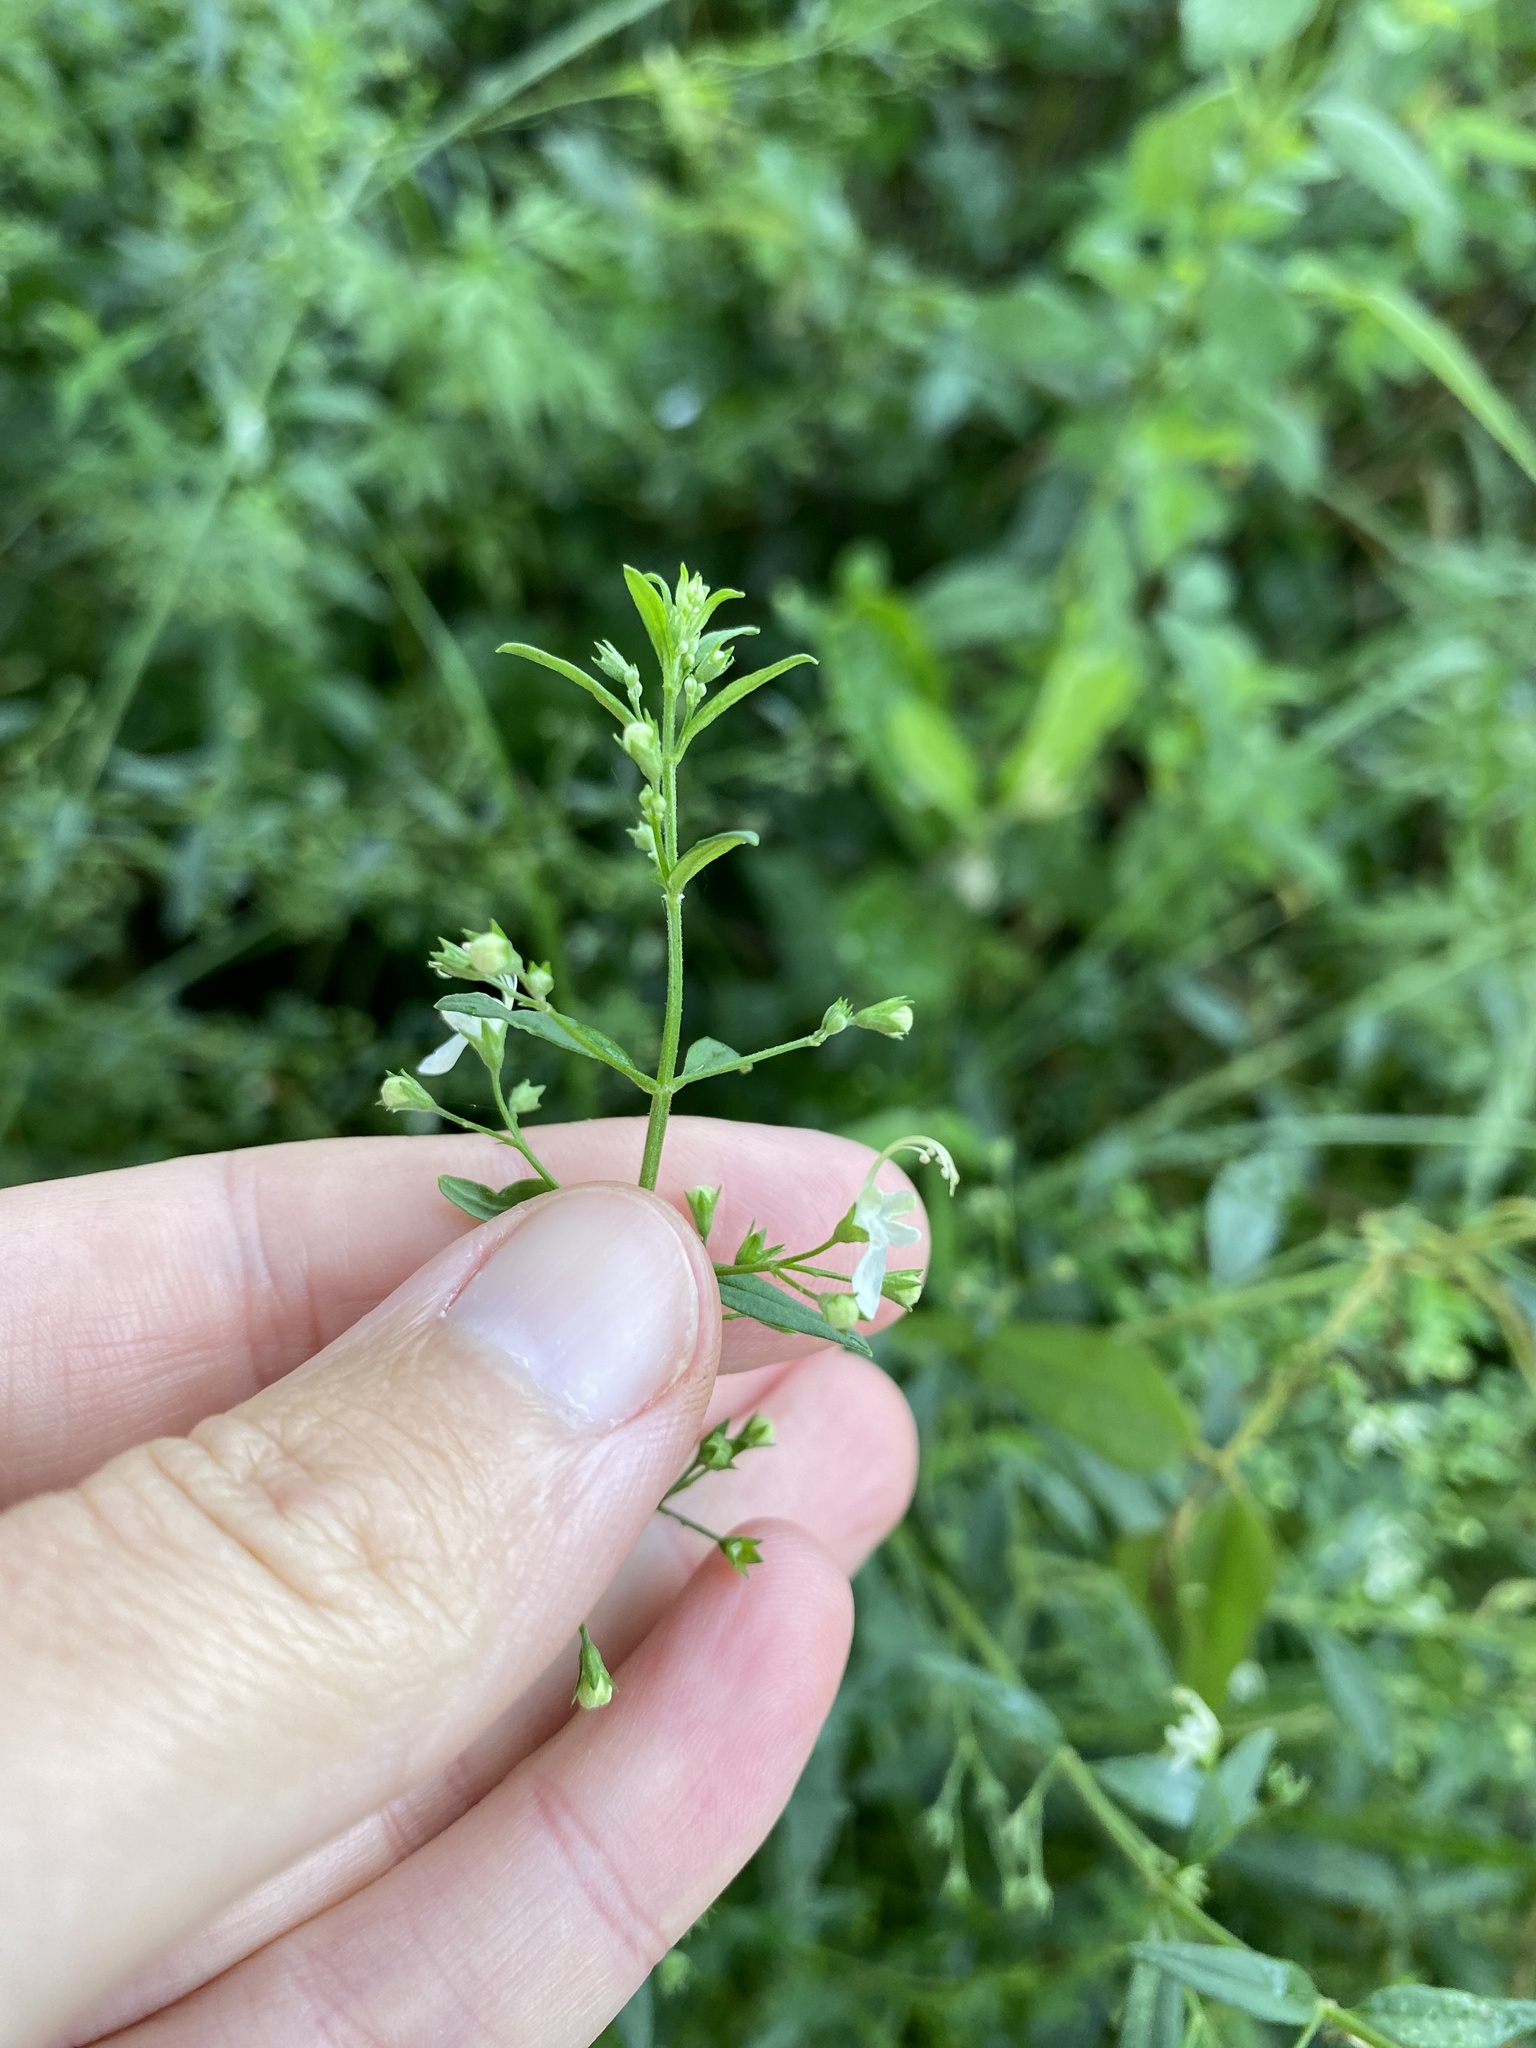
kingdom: Plantae
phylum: Tracheophyta
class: Magnoliopsida
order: Lamiales
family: Lamiaceae
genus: Teucrium
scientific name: Teucrium kraussii
